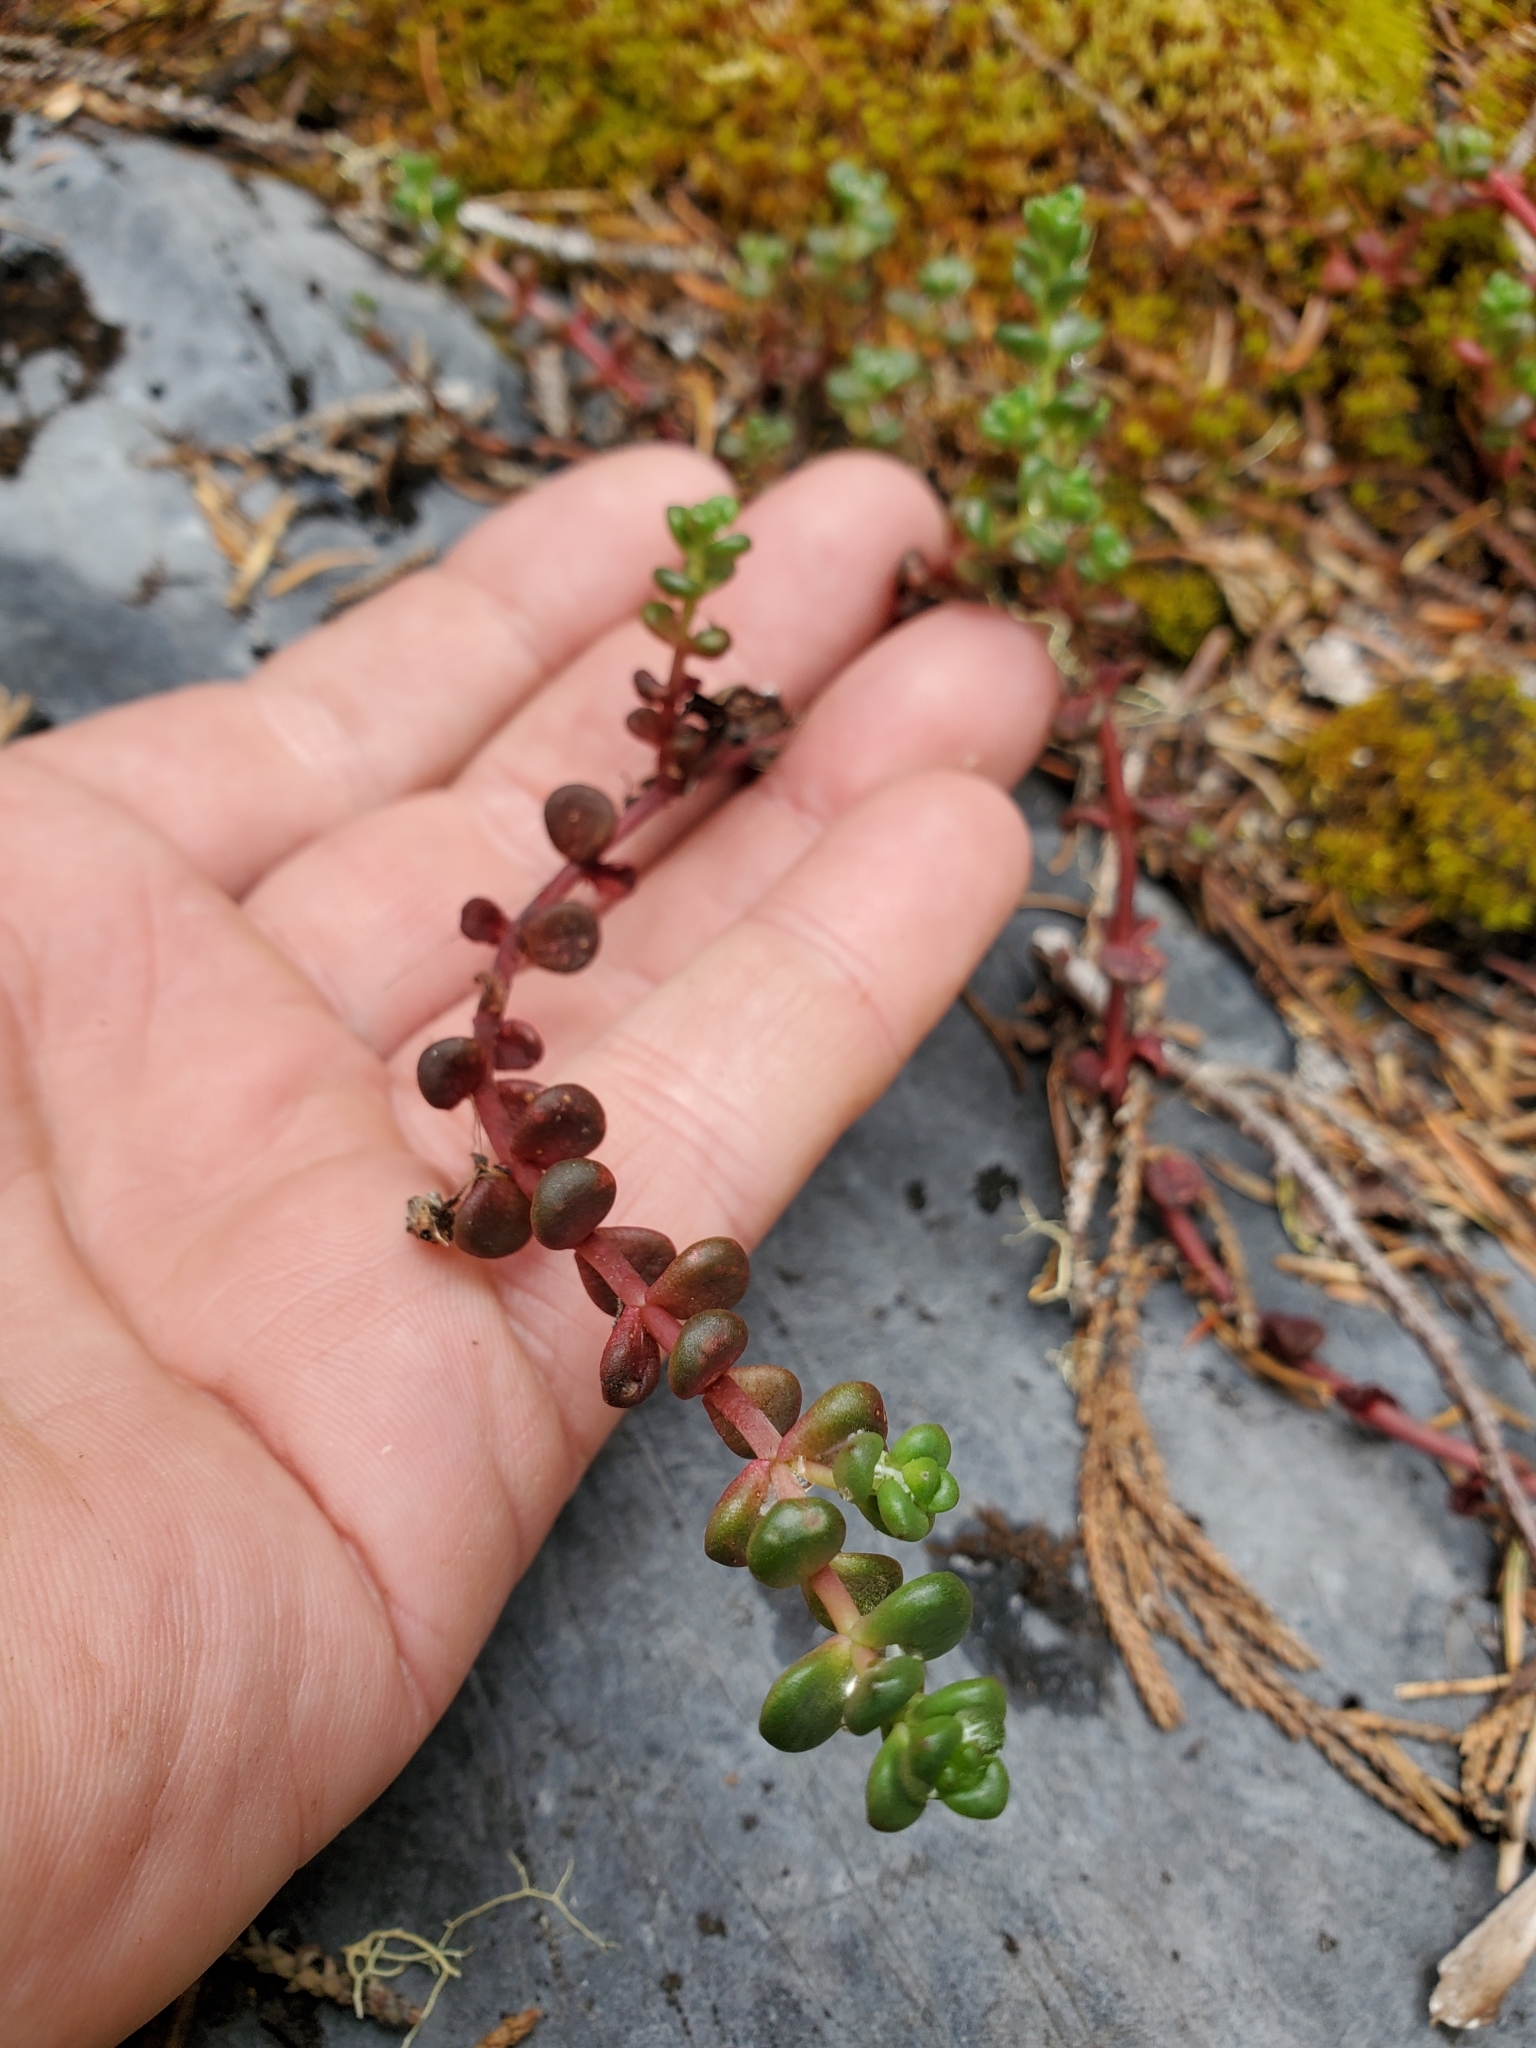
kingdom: Plantae
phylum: Tracheophyta
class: Magnoliopsida
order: Saxifragales
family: Crassulaceae
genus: Sedum
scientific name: Sedum divergens
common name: Cascade stonecrop
